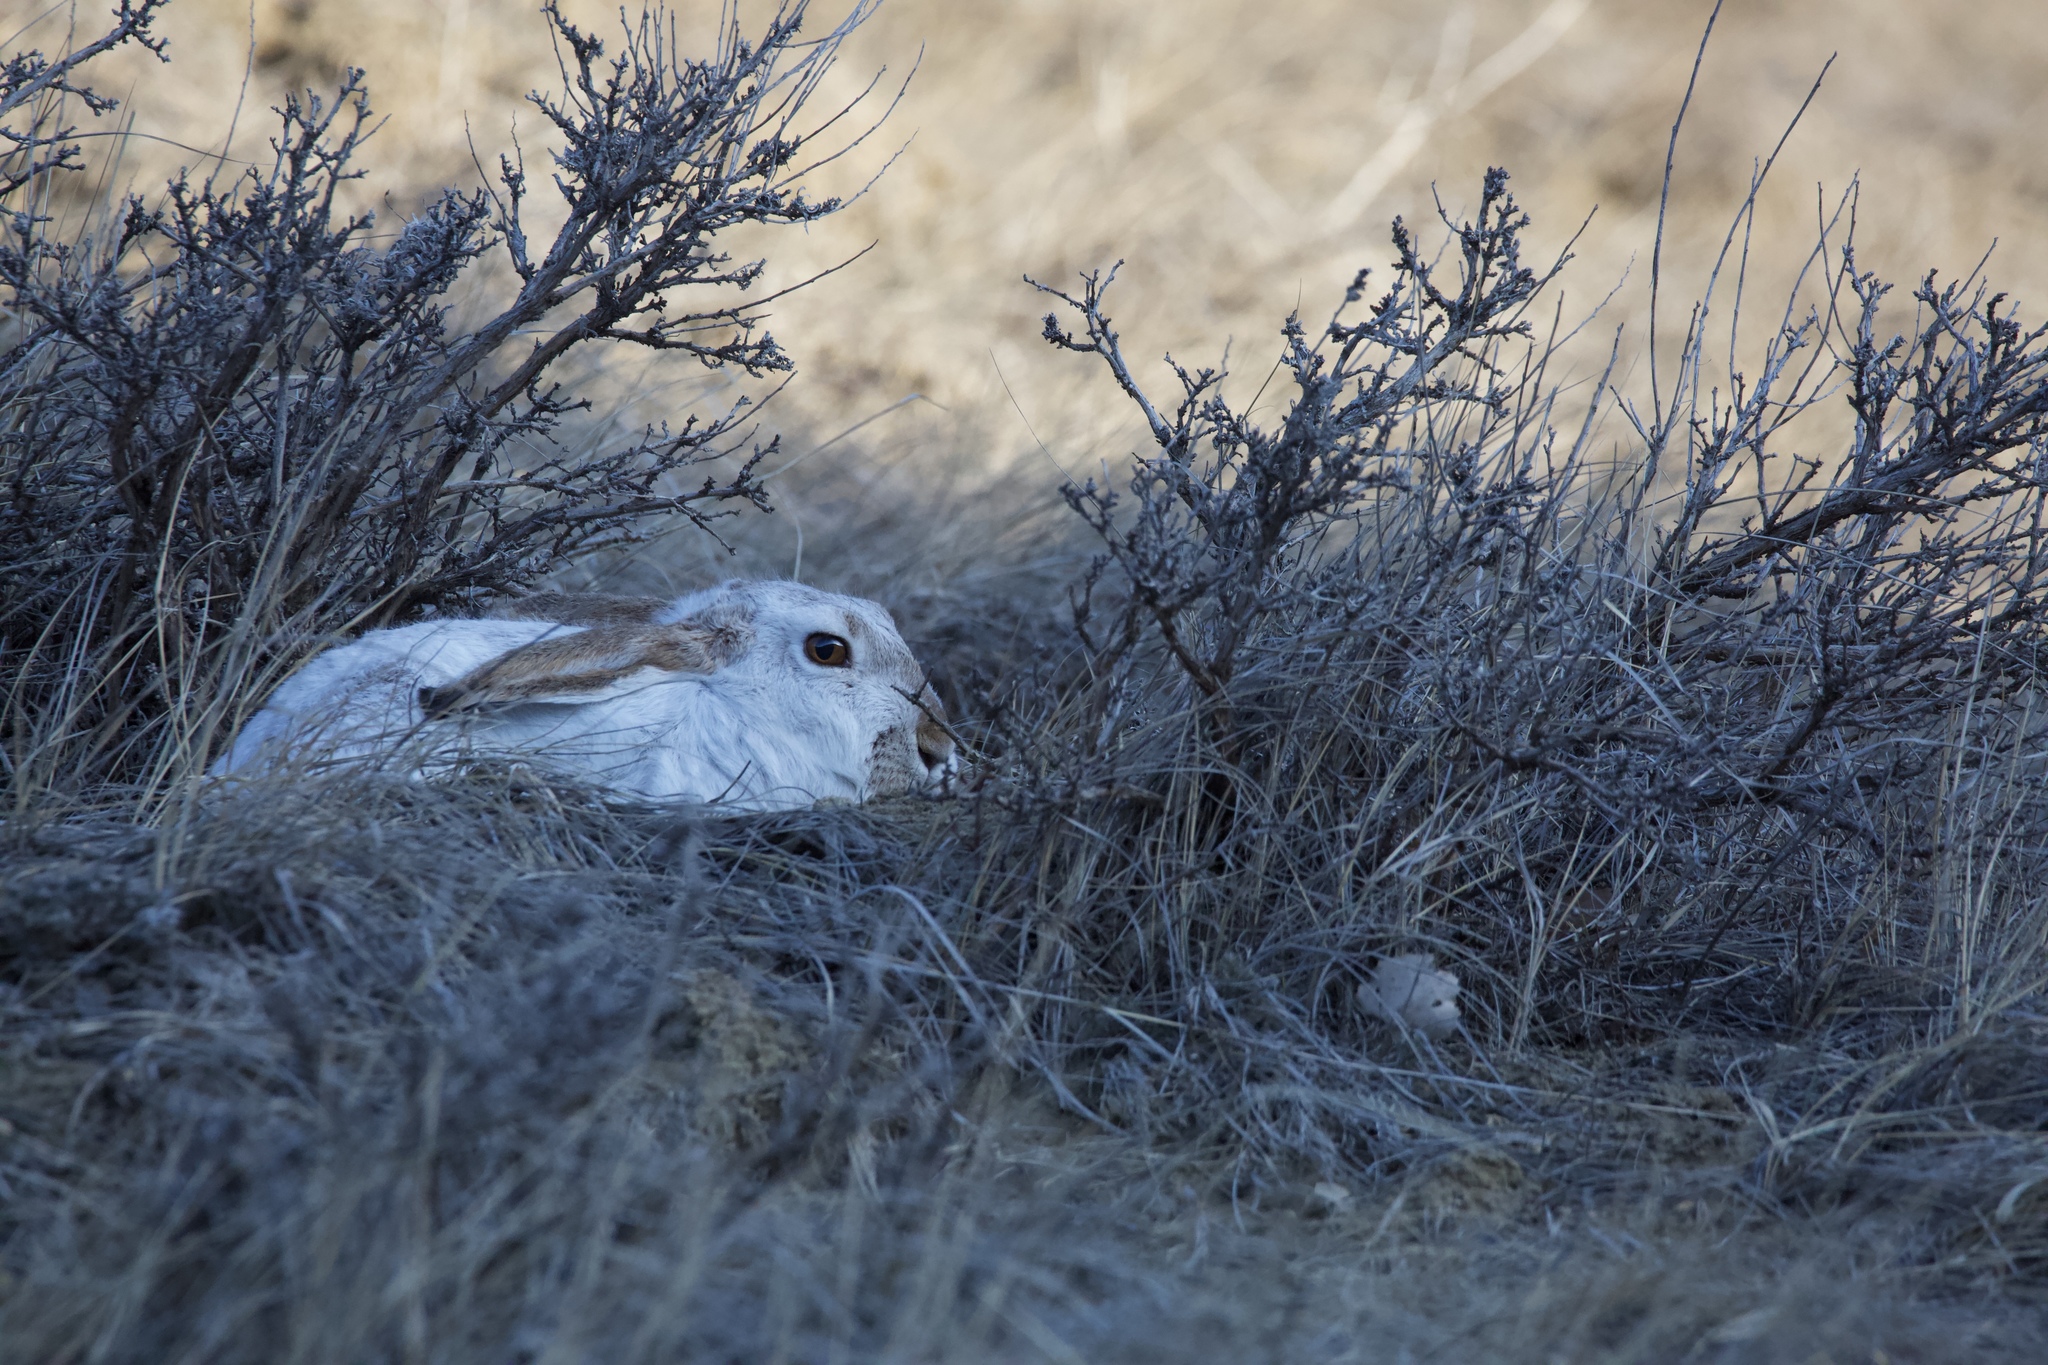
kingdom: Animalia
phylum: Chordata
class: Mammalia
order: Lagomorpha
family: Leporidae
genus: Lepus
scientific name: Lepus townsendii
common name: White-tailed jackrabbit
